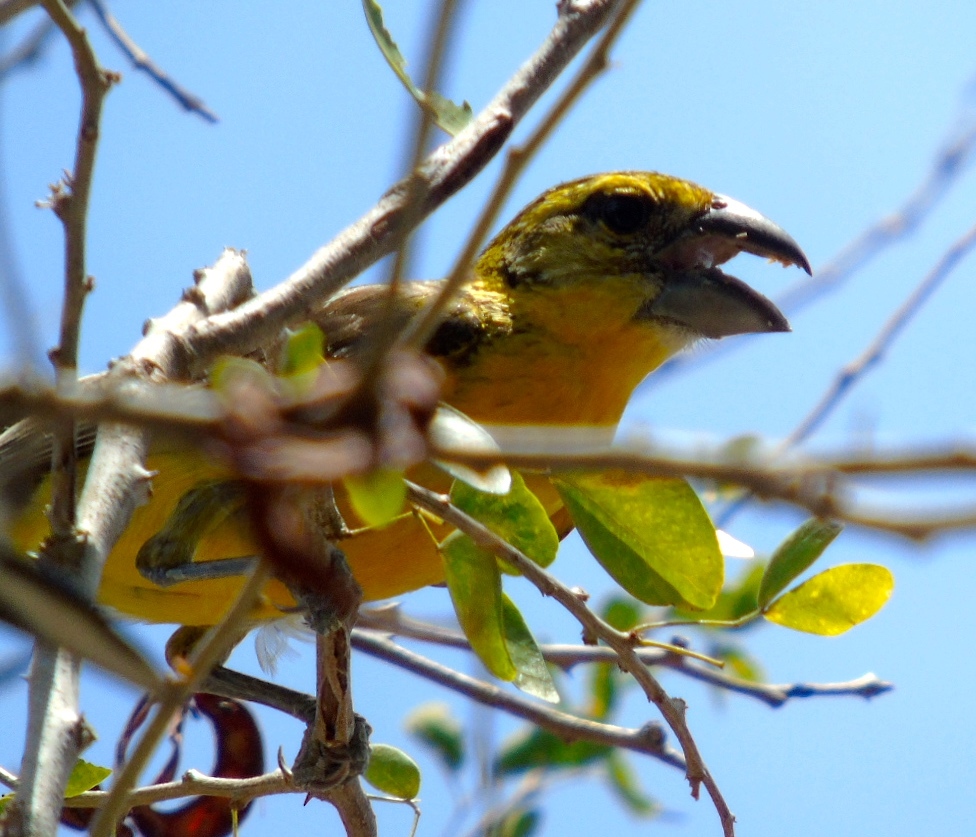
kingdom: Animalia
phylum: Chordata
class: Aves
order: Passeriformes
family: Cardinalidae
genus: Pheucticus
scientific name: Pheucticus chrysopeplus
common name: Yellow grosbeak
